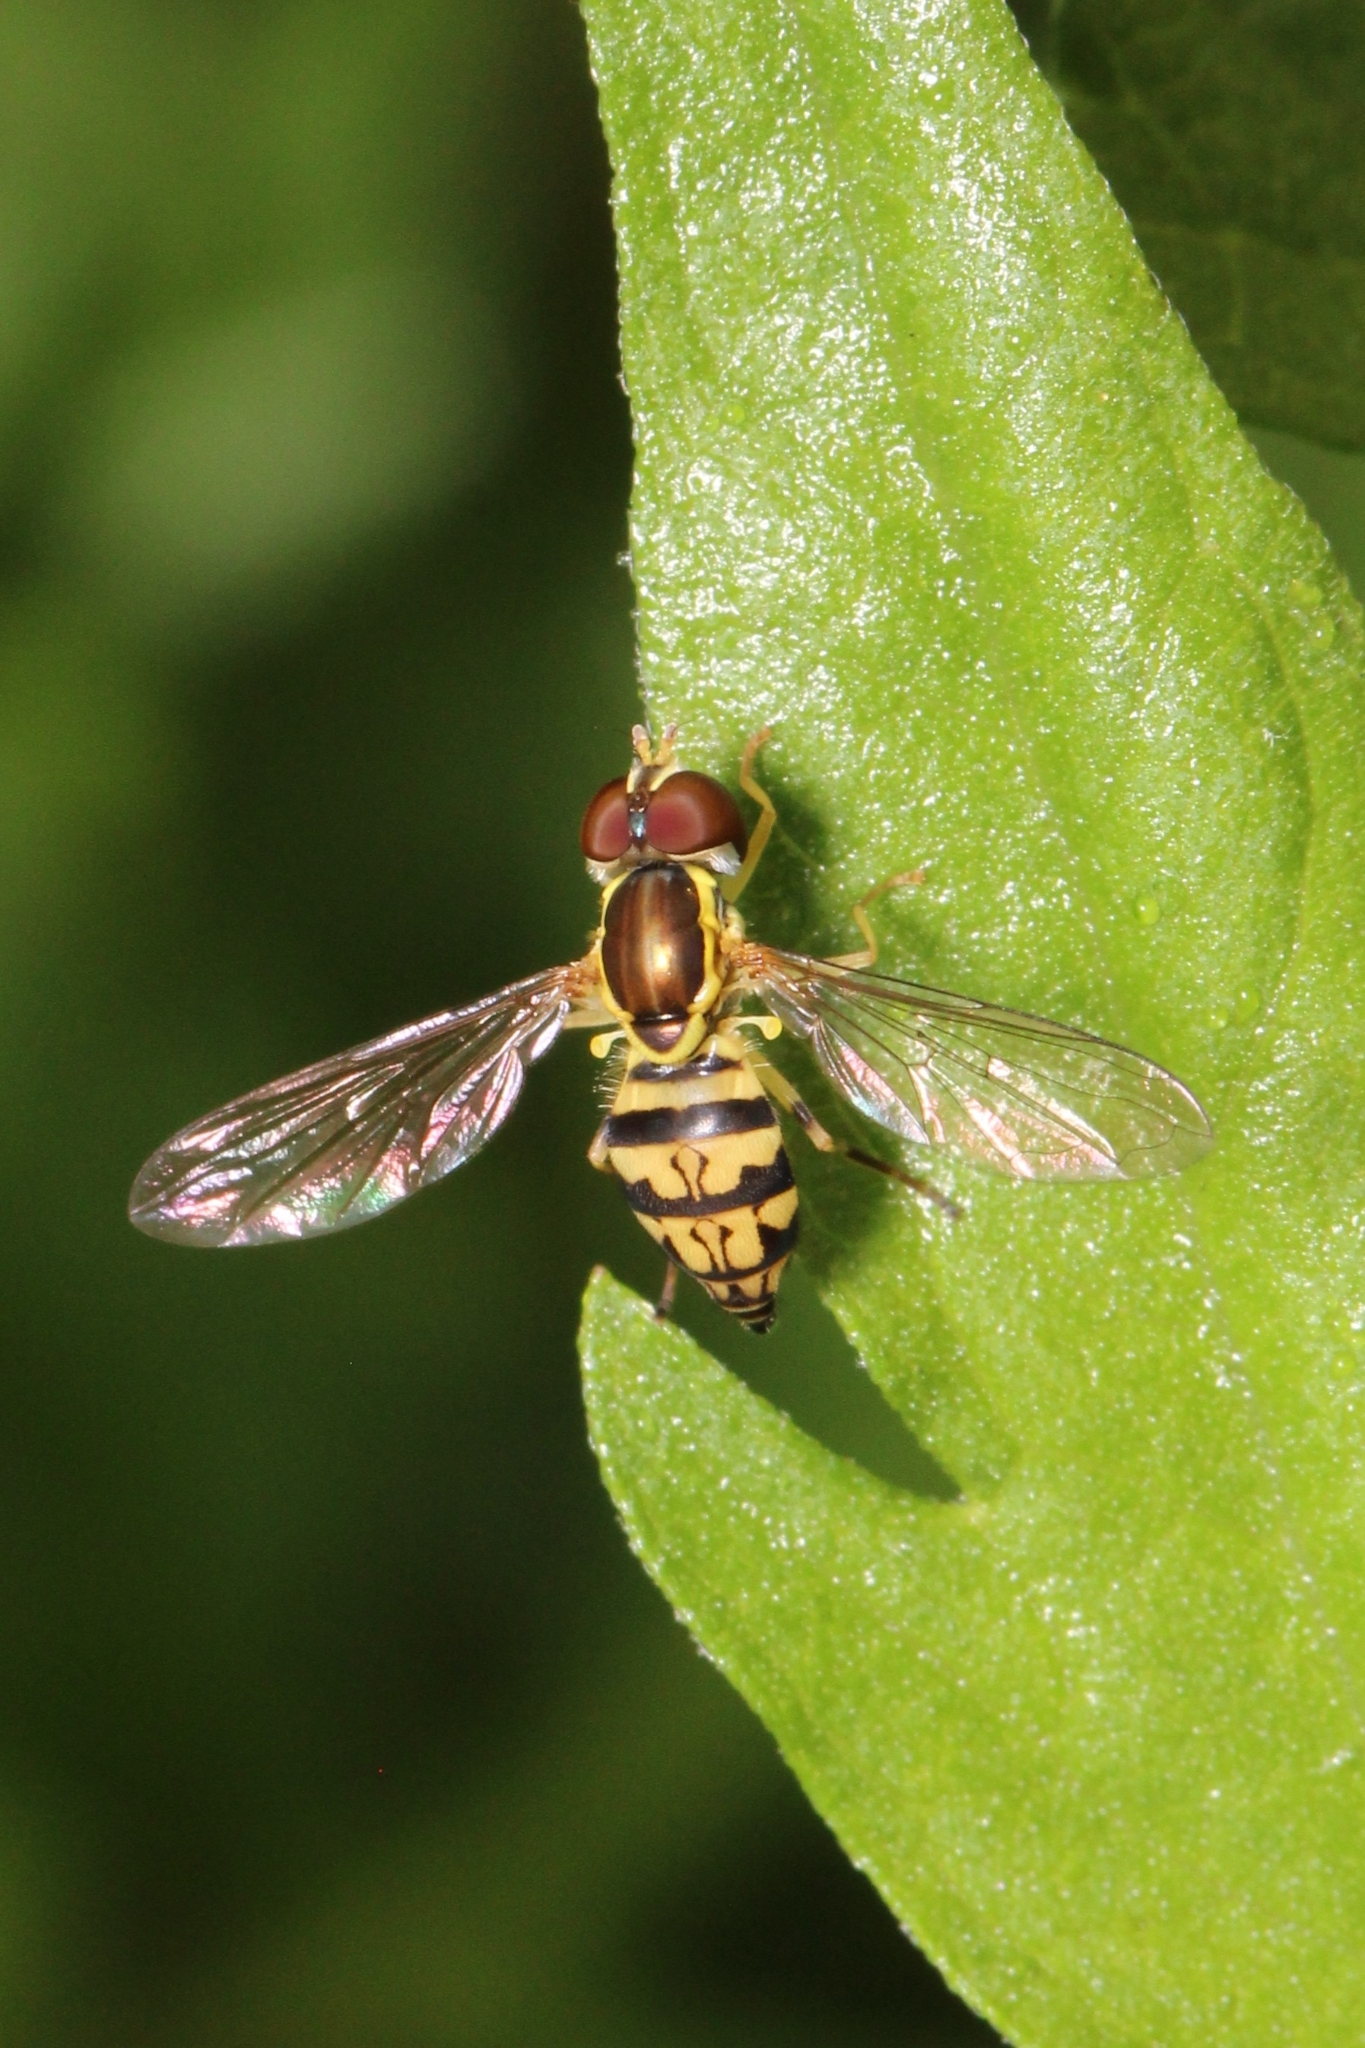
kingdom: Animalia
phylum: Arthropoda
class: Insecta
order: Diptera
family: Syrphidae
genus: Toxomerus
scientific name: Toxomerus geminatus
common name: Eastern calligrapher
